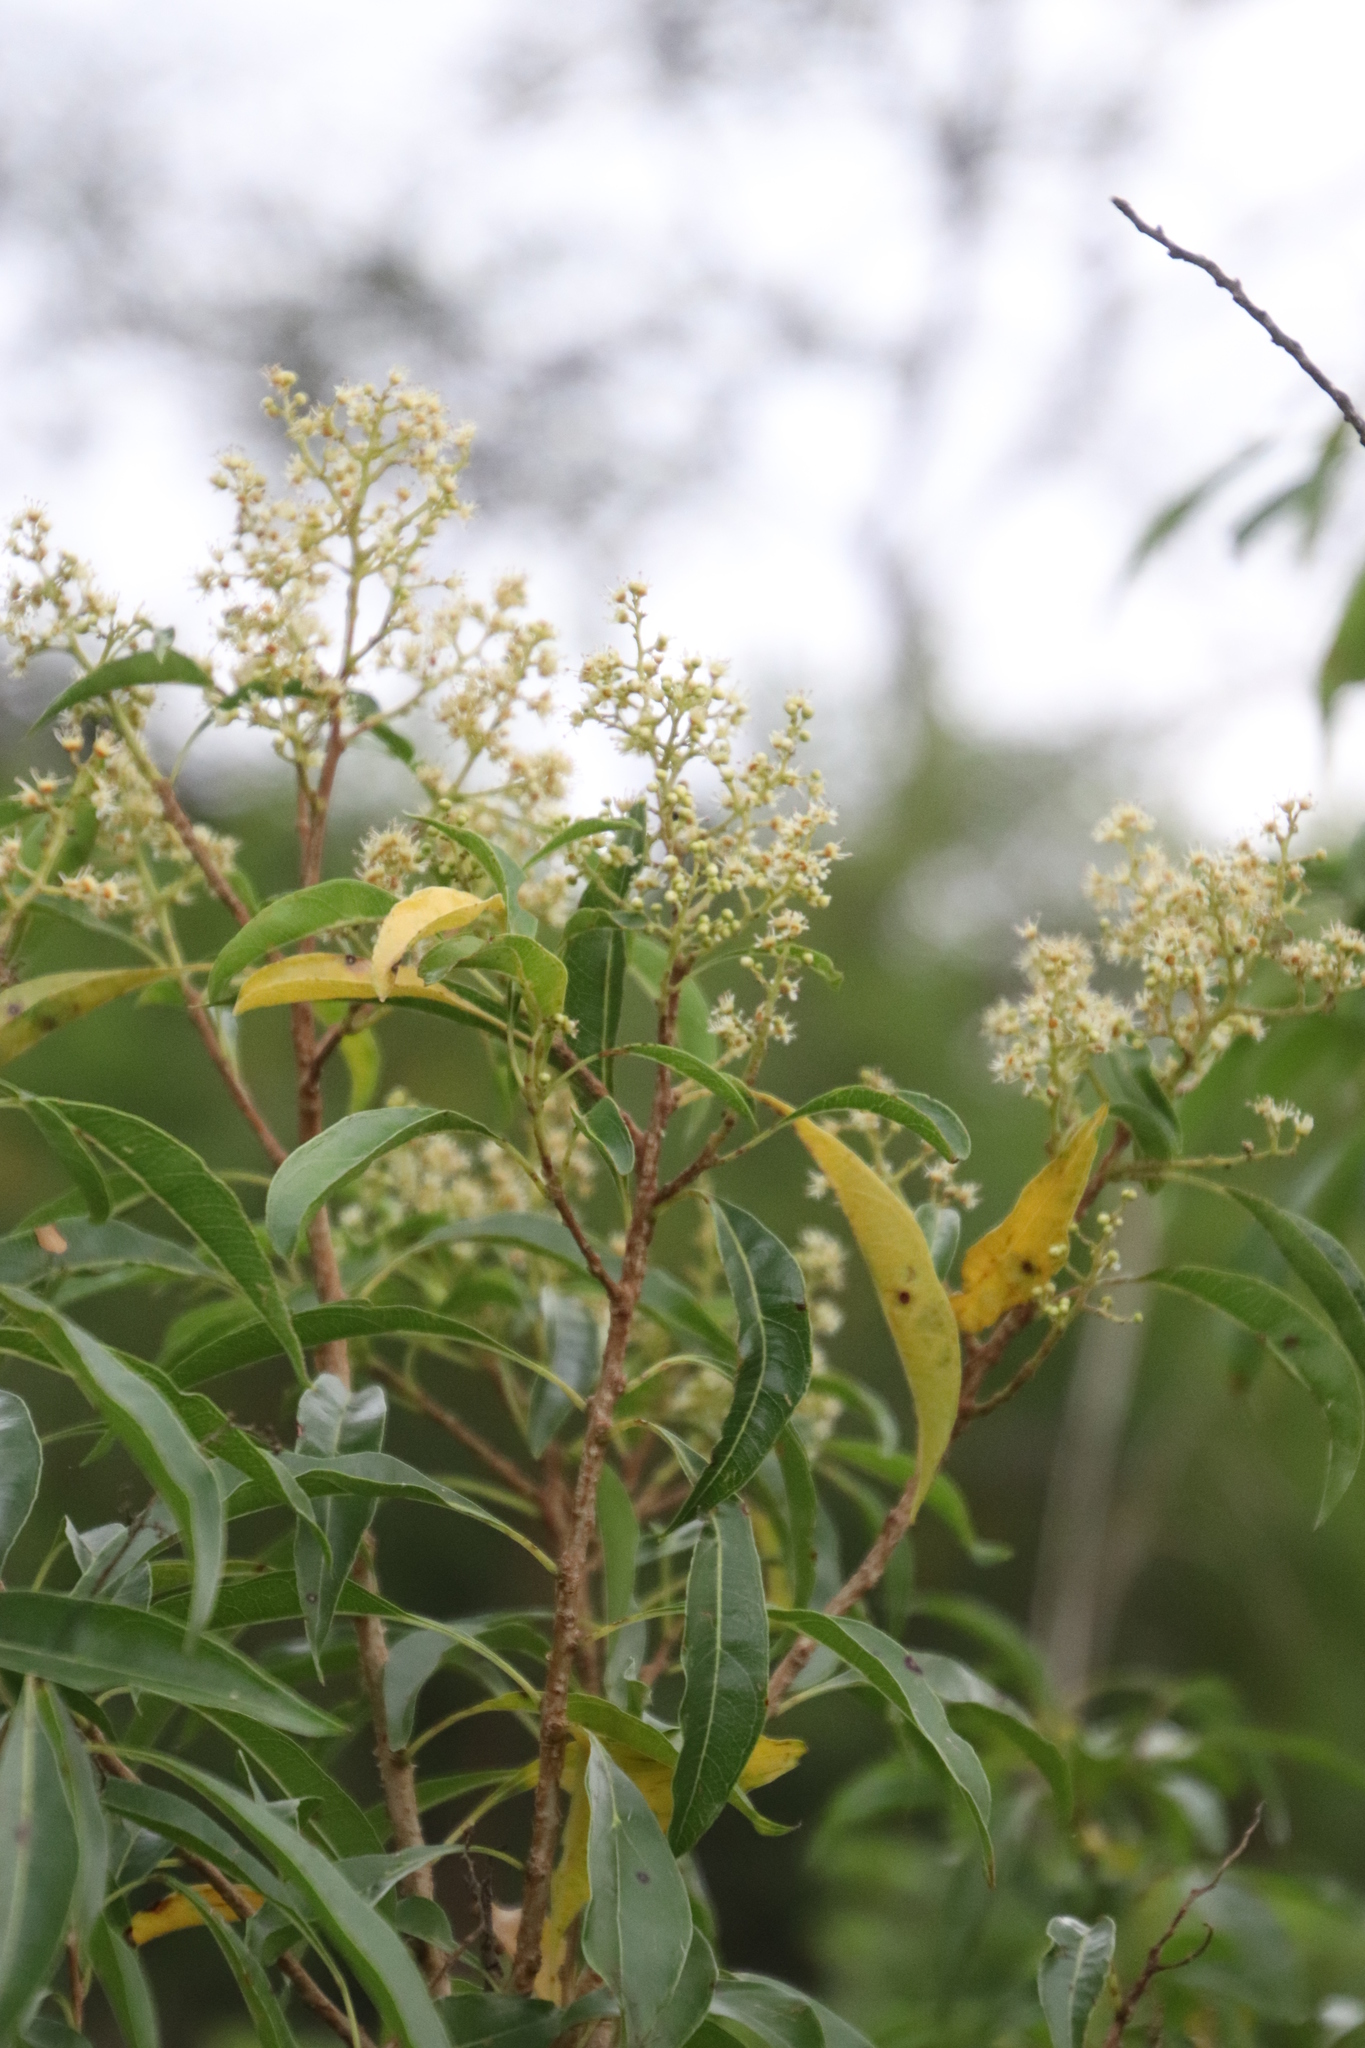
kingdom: Plantae
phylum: Tracheophyta
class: Magnoliopsida
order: Myrtales
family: Myrtaceae
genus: Heteropyxis
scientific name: Heteropyxis natalensis
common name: Lavender tree
